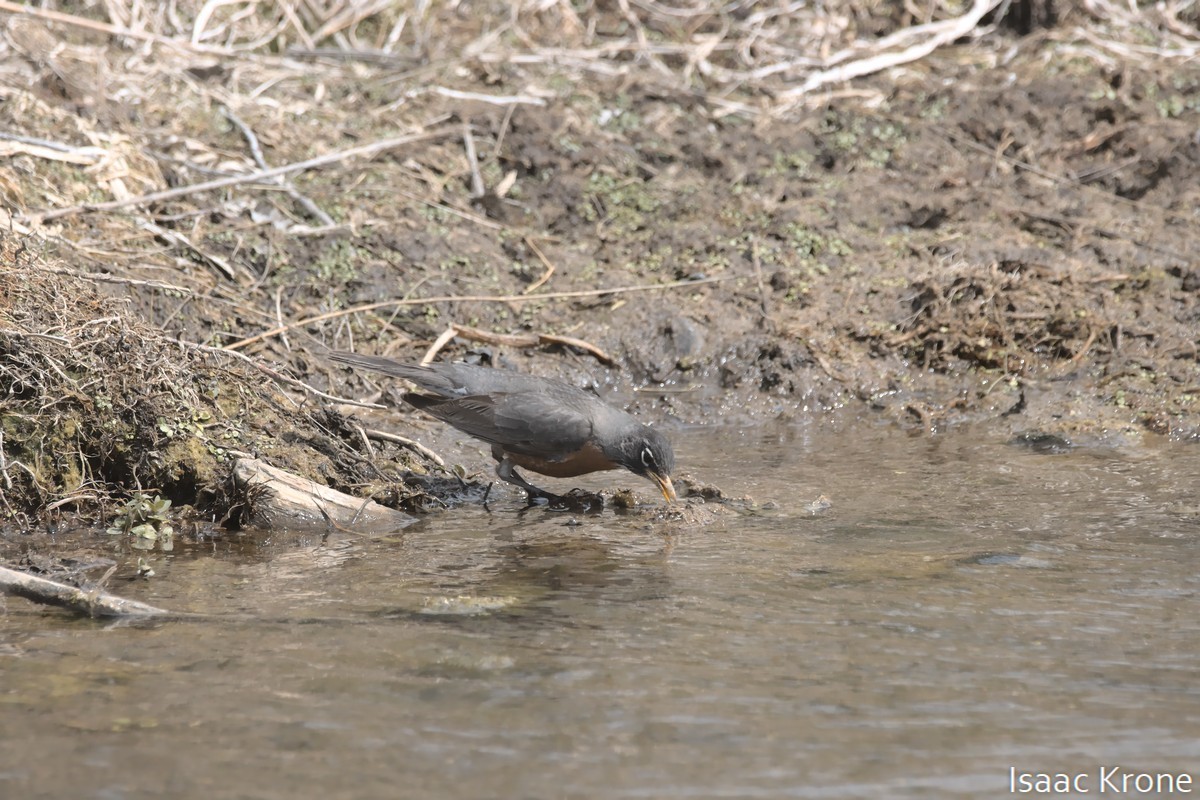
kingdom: Animalia
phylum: Chordata
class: Aves
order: Passeriformes
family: Turdidae
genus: Turdus
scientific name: Turdus migratorius
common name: American robin
